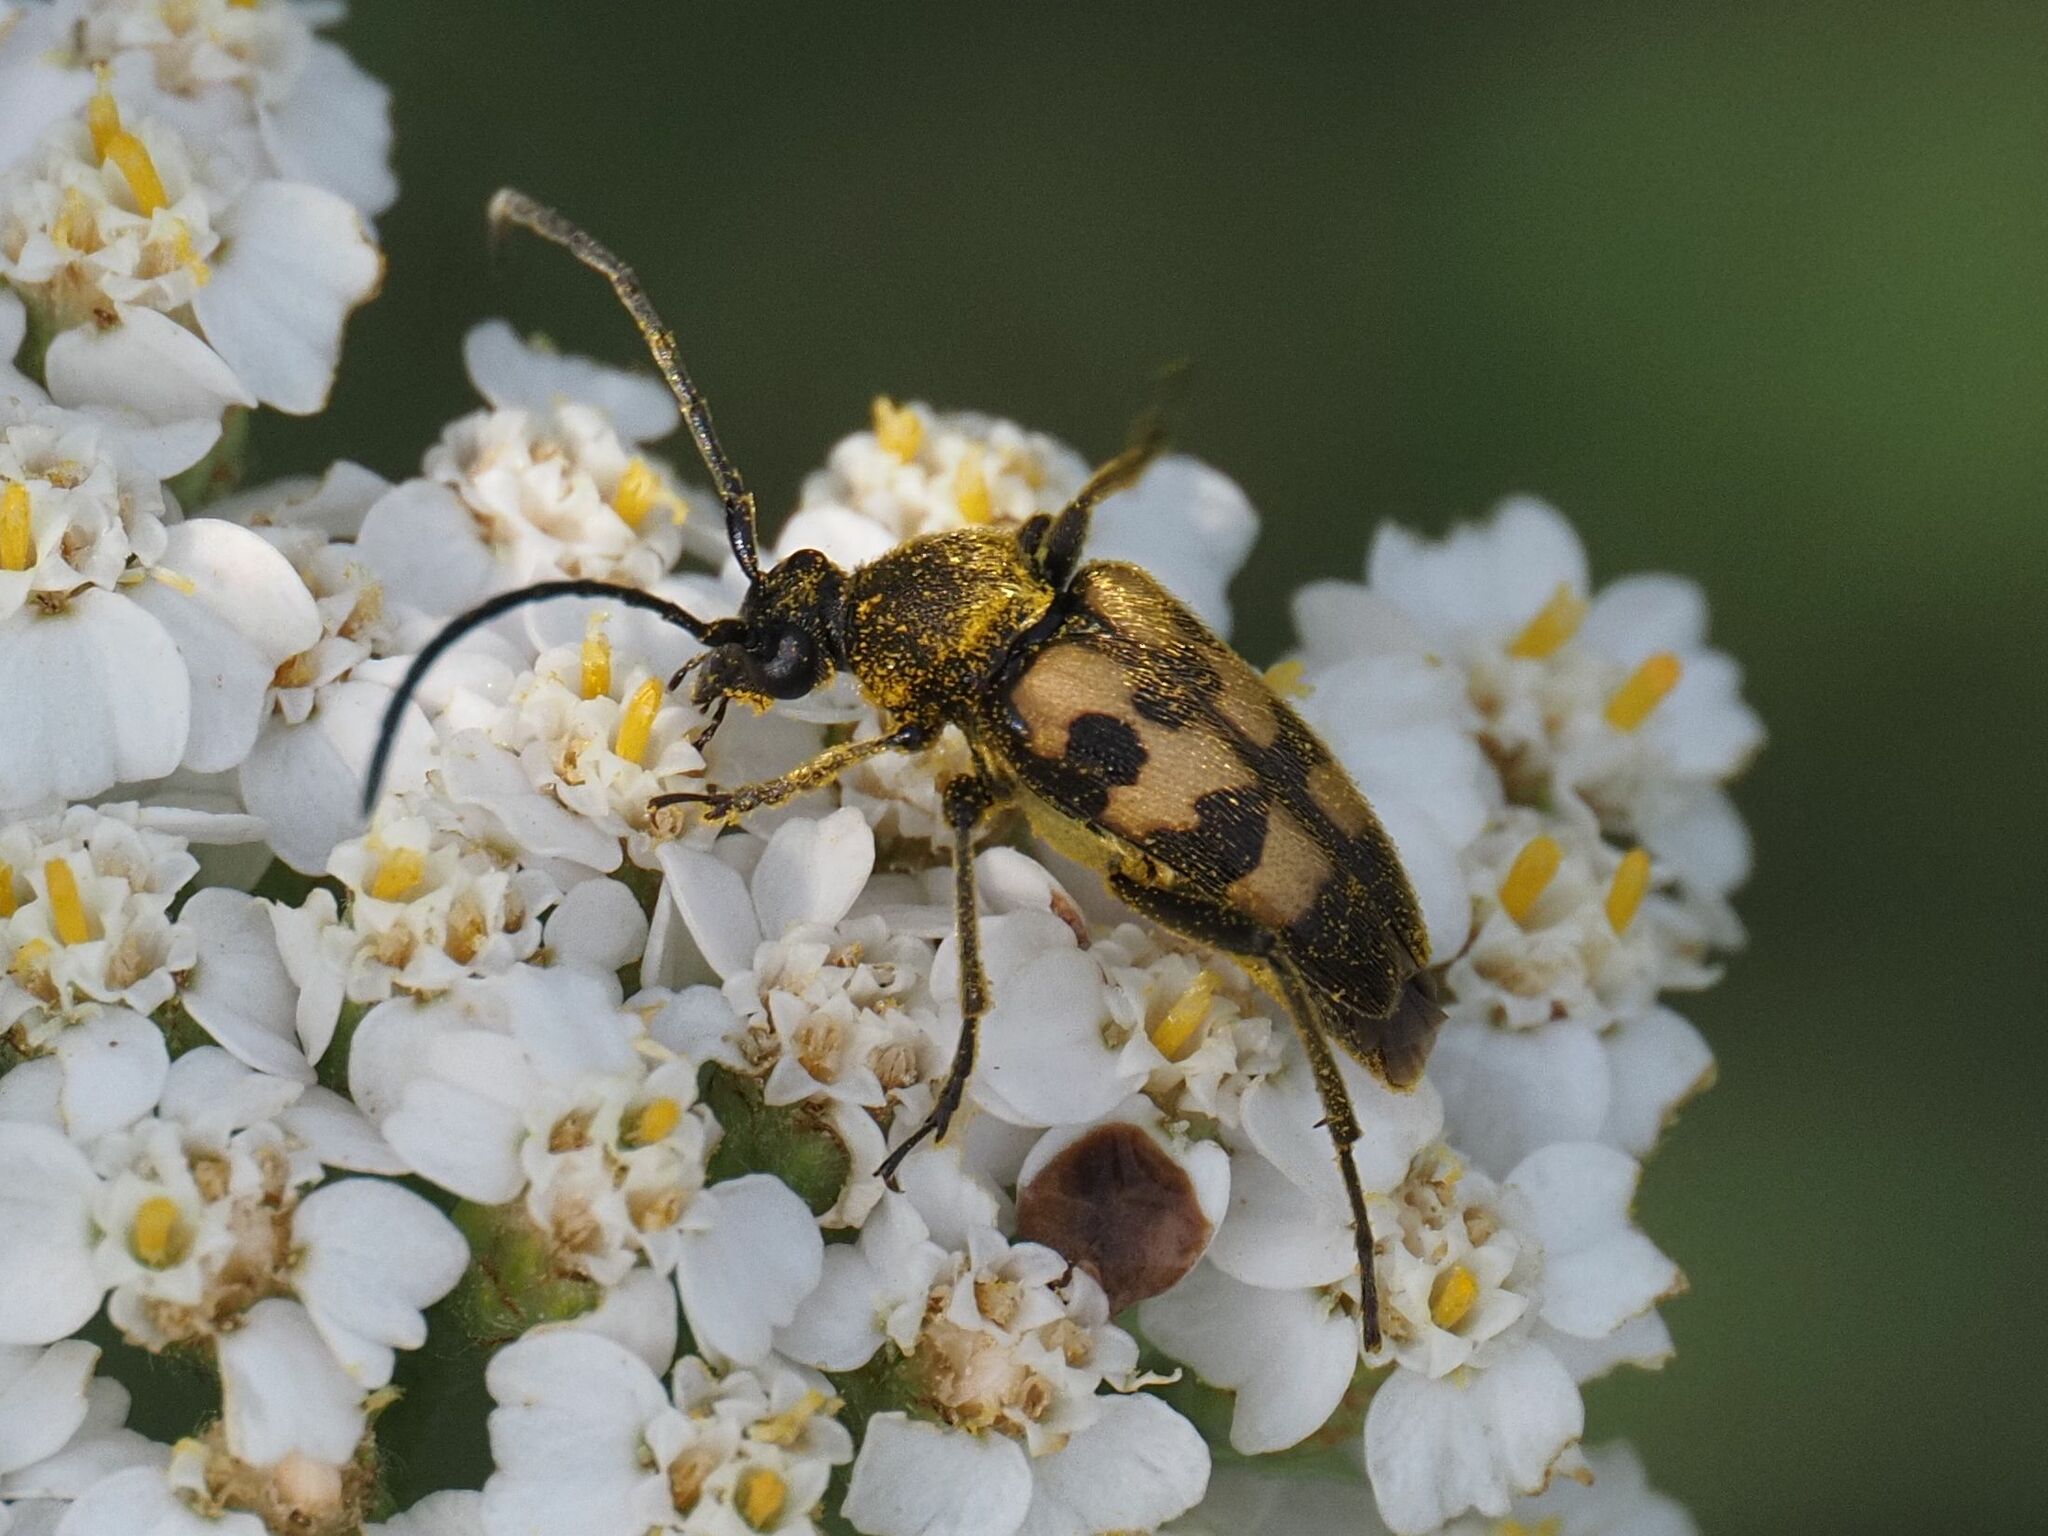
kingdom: Animalia
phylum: Arthropoda
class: Insecta
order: Coleoptera
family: Cerambycidae
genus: Pachytodes
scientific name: Pachytodes
